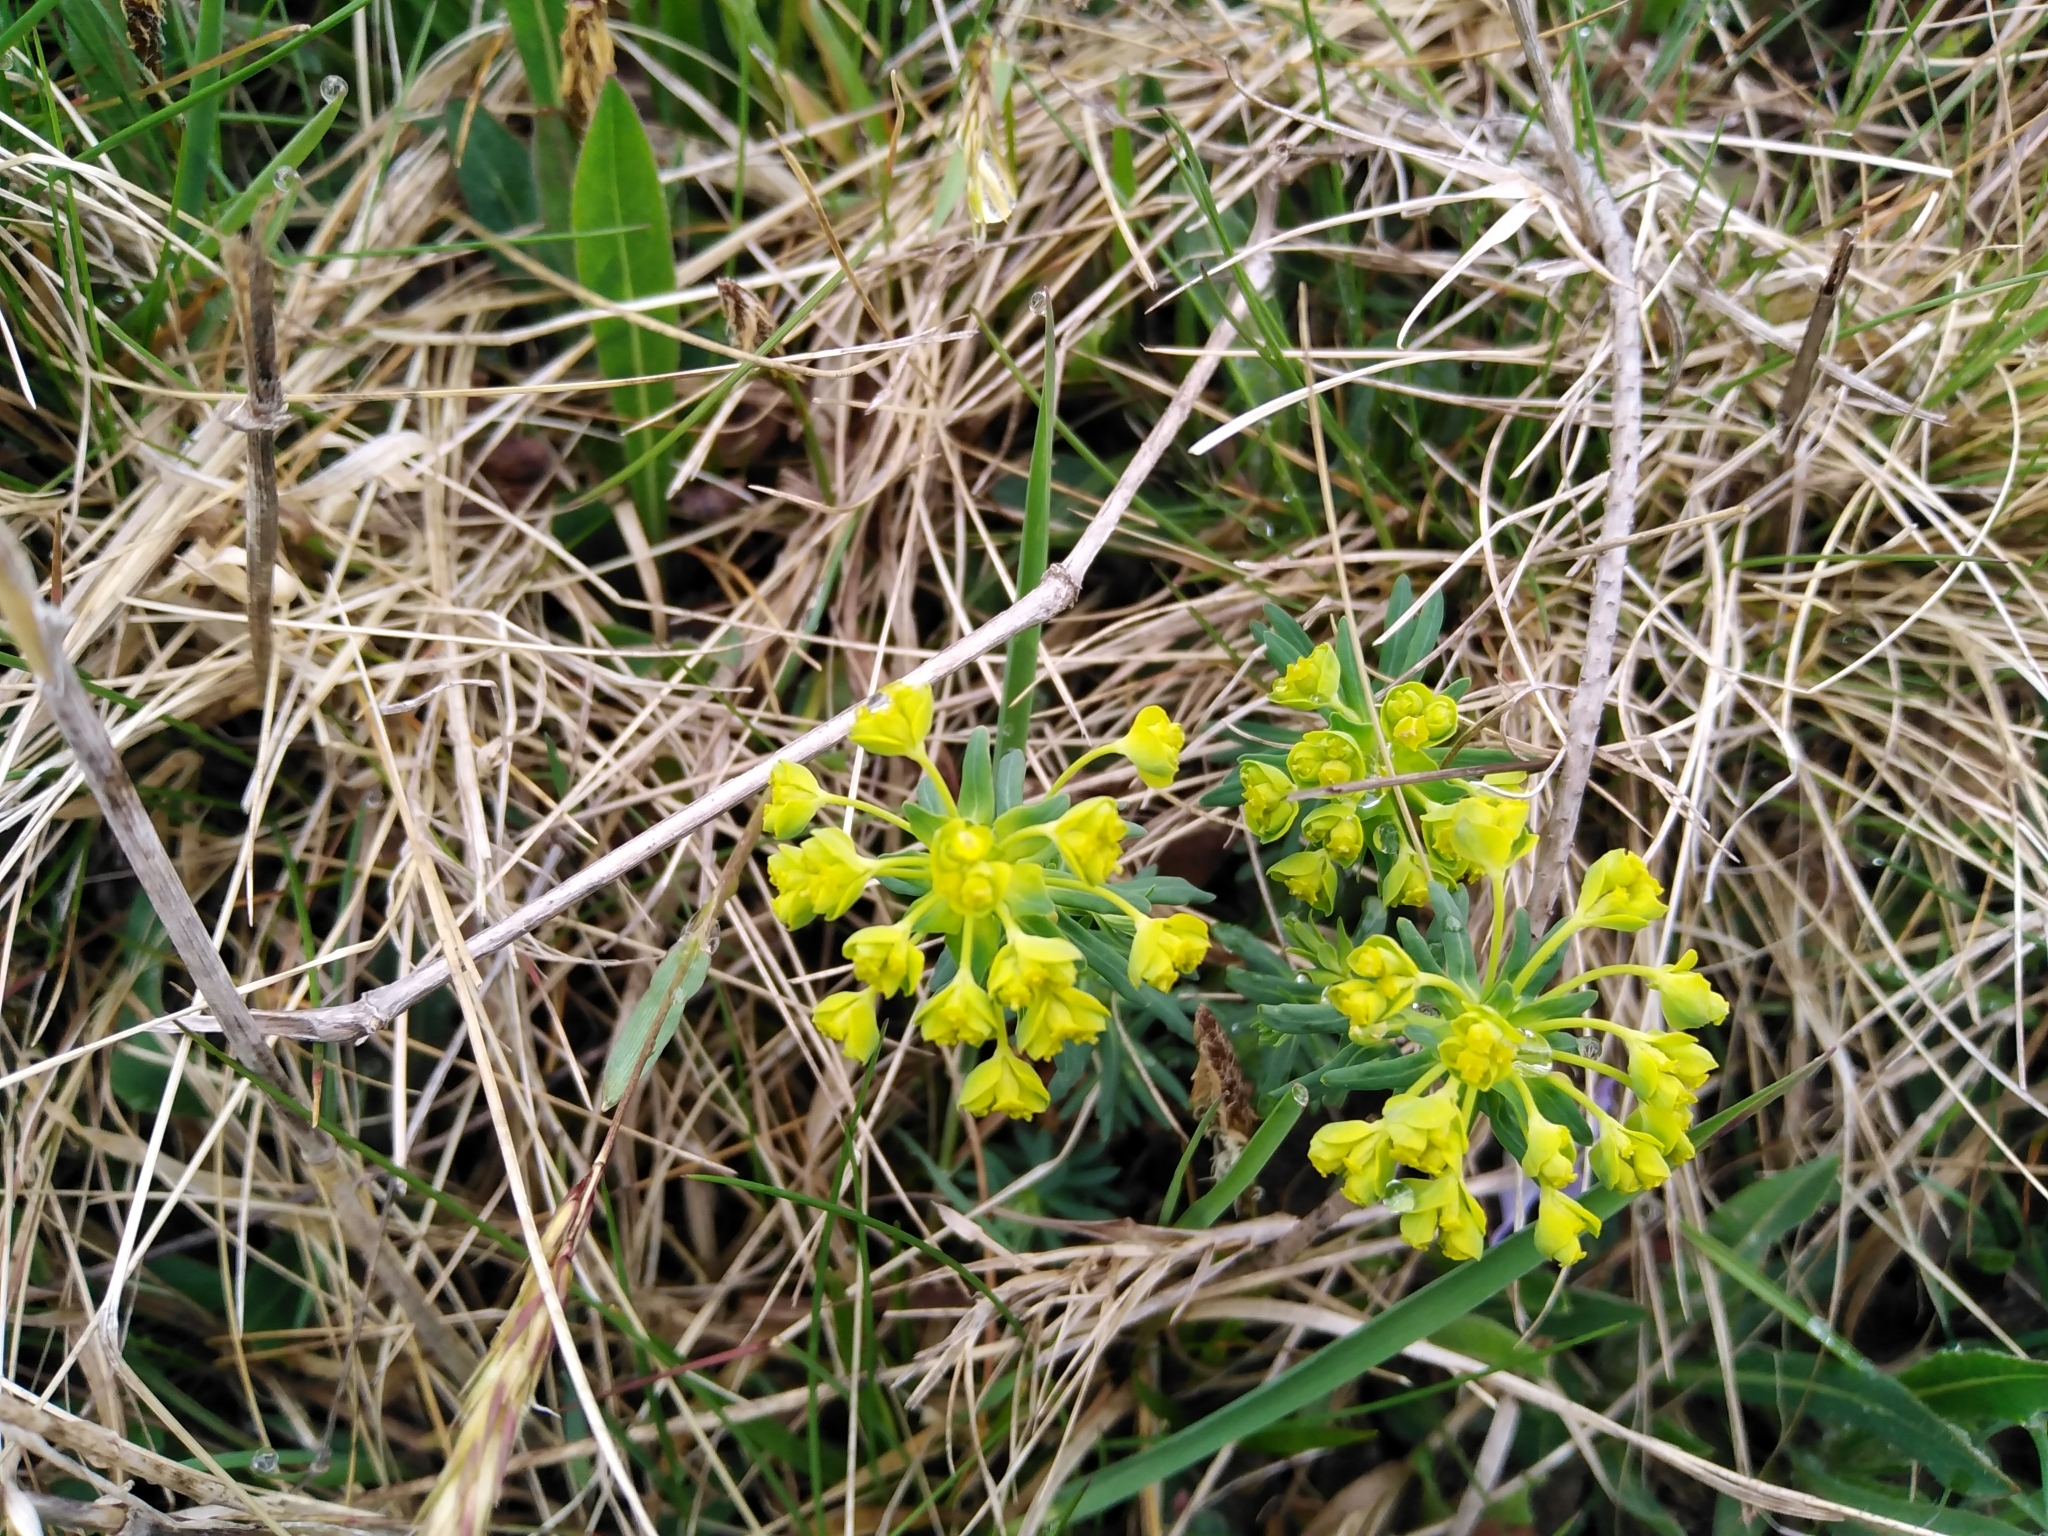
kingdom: Plantae
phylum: Tracheophyta
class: Magnoliopsida
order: Malpighiales
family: Euphorbiaceae
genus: Euphorbia
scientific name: Euphorbia cyparissias
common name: Cypress spurge
